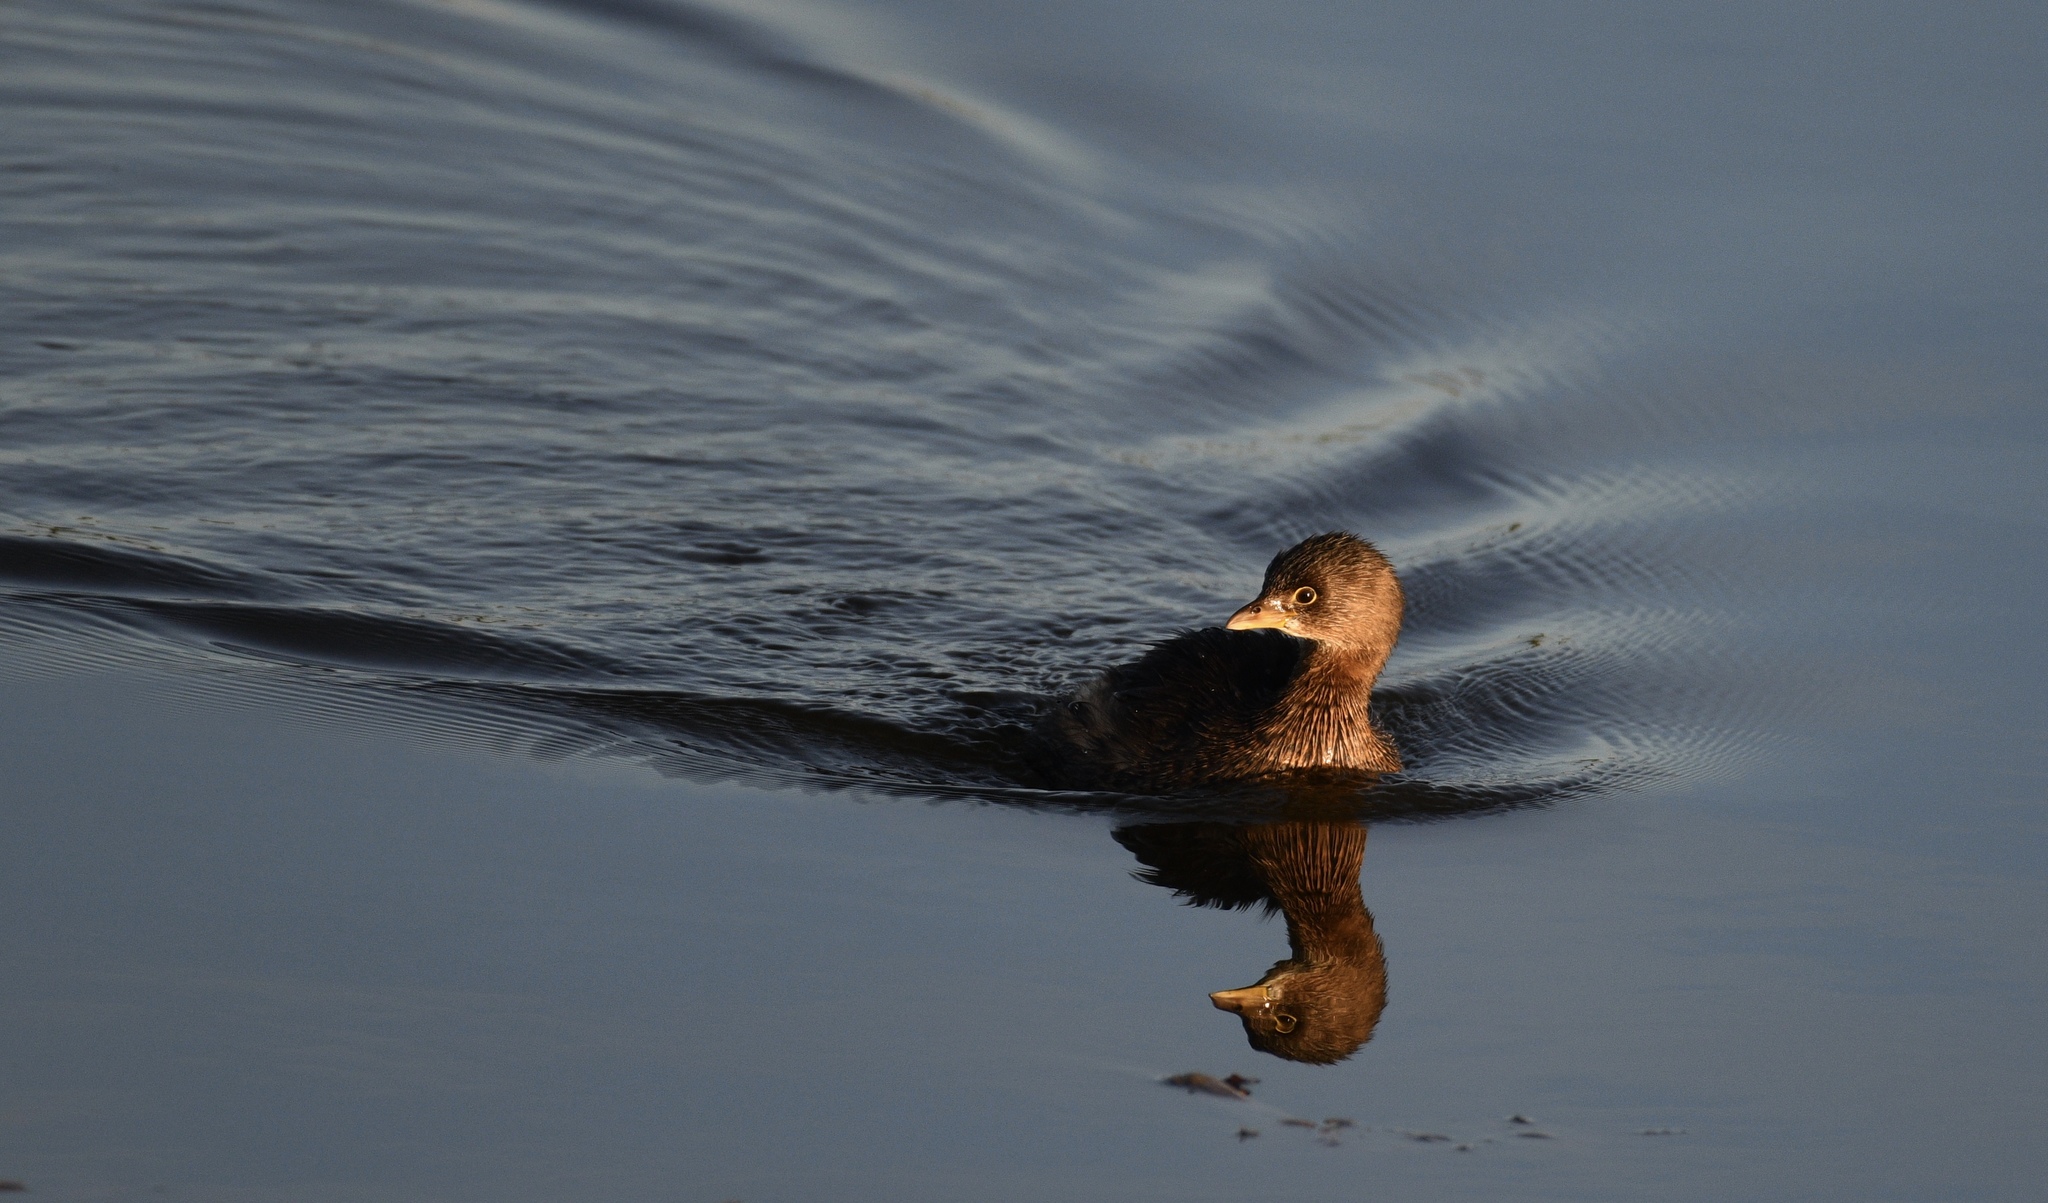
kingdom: Animalia
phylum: Chordata
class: Aves
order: Podicipediformes
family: Podicipedidae
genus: Podilymbus
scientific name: Podilymbus podiceps
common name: Pied-billed grebe
